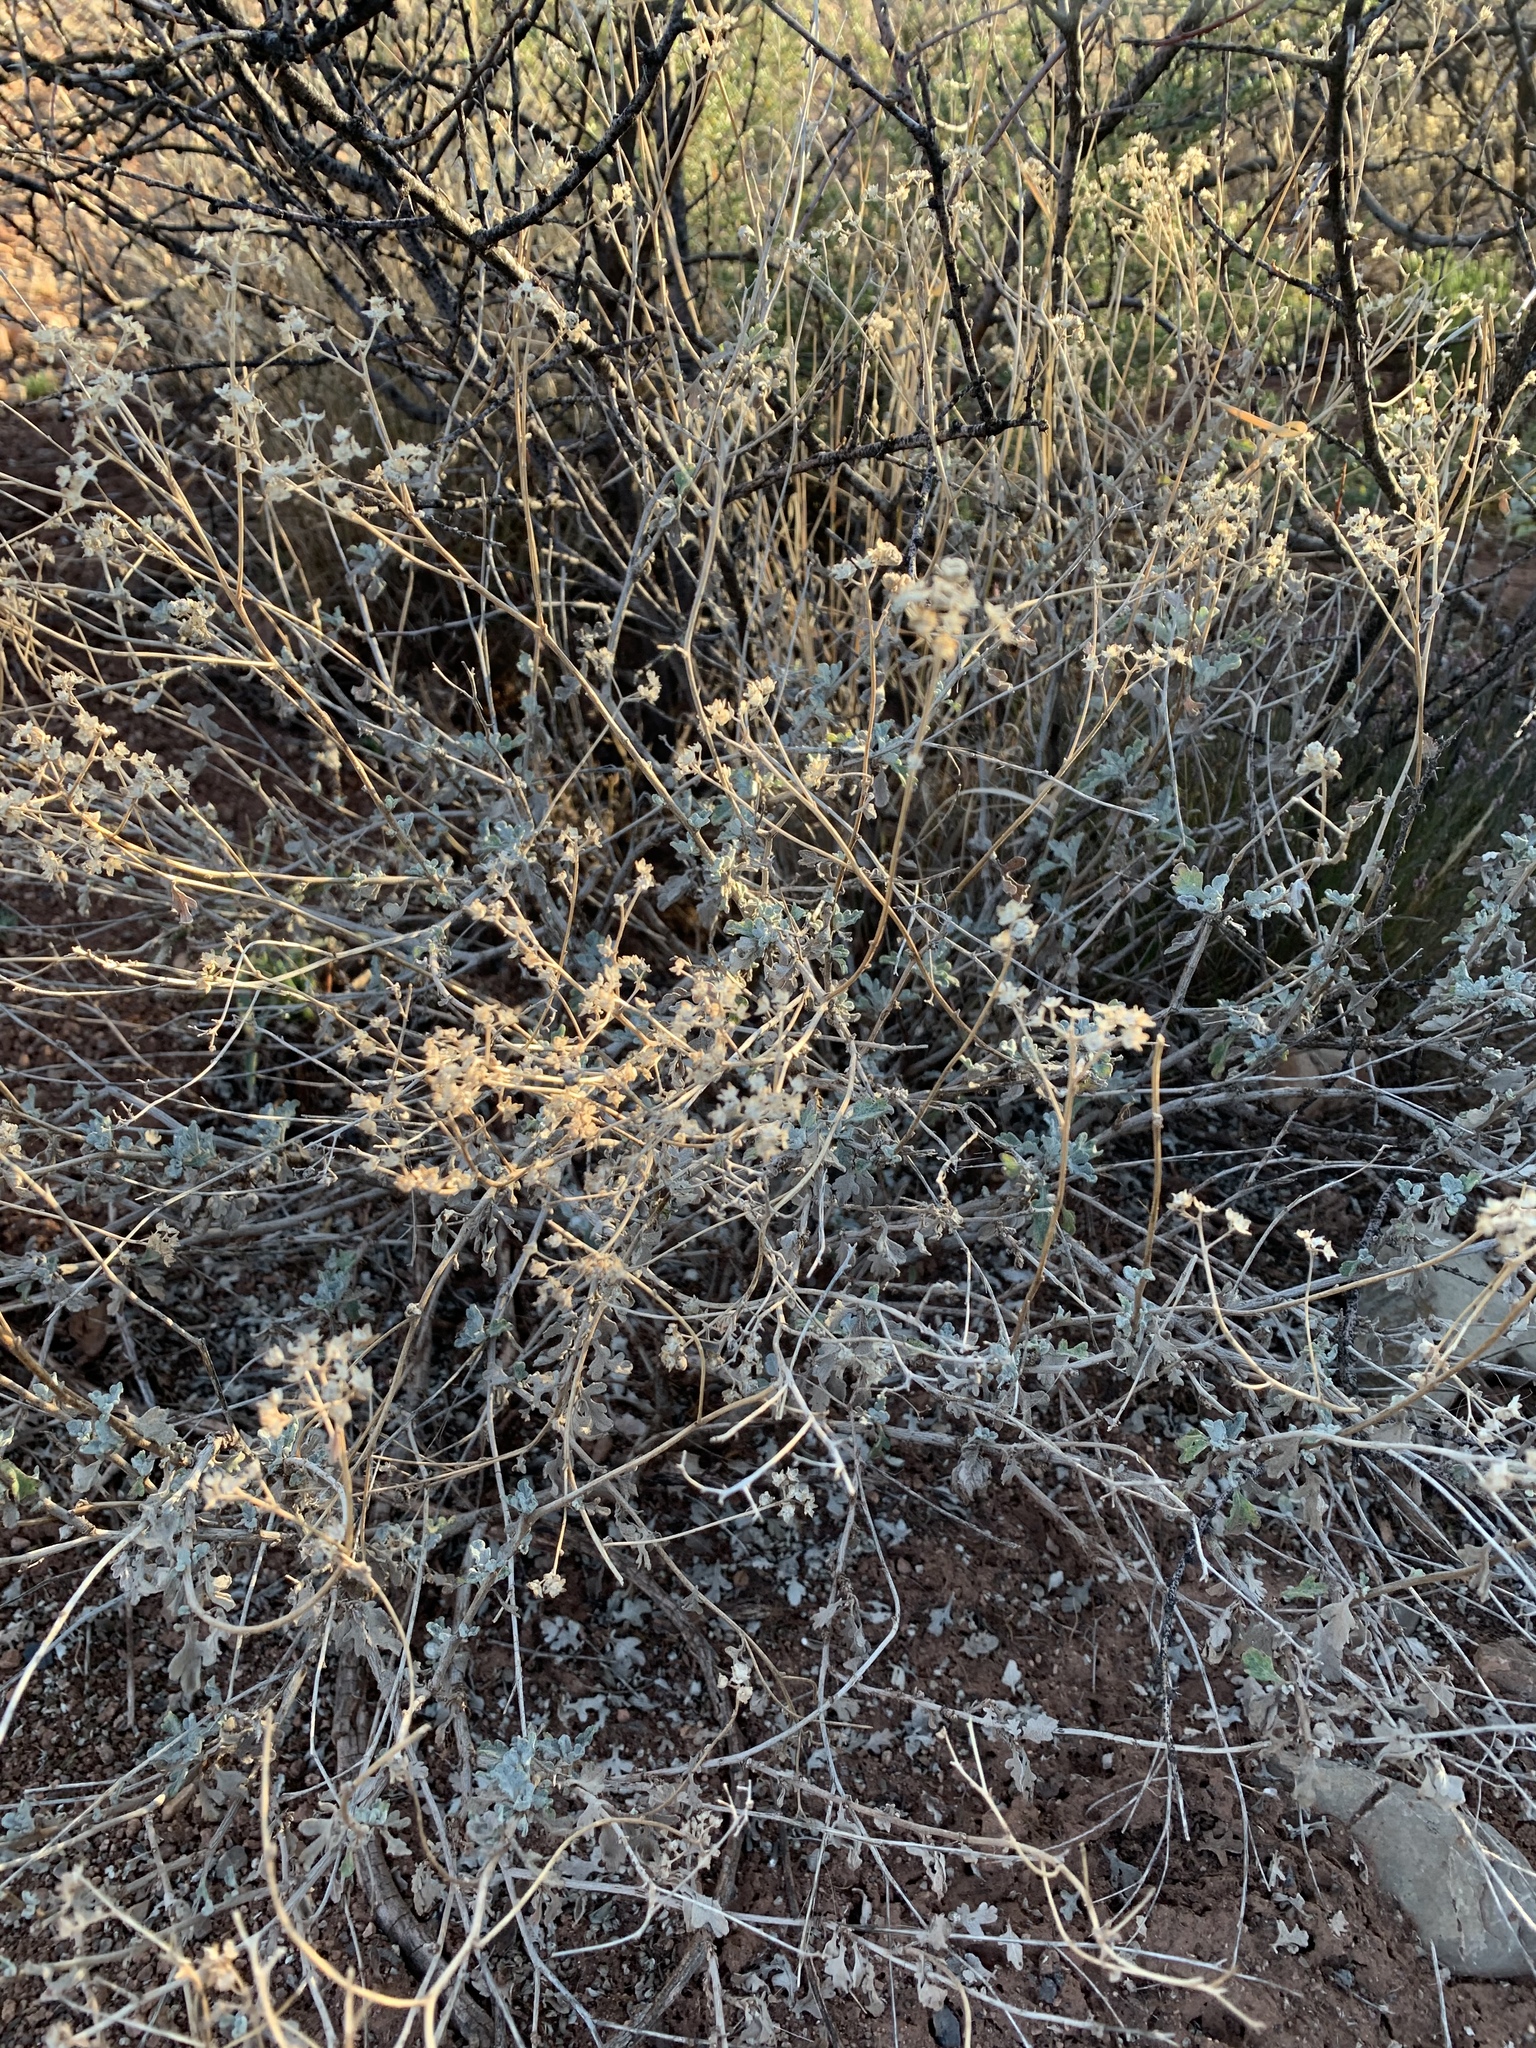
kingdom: Plantae
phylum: Tracheophyta
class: Magnoliopsida
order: Asterales
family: Asteraceae
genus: Parthenium
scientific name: Parthenium incanum
